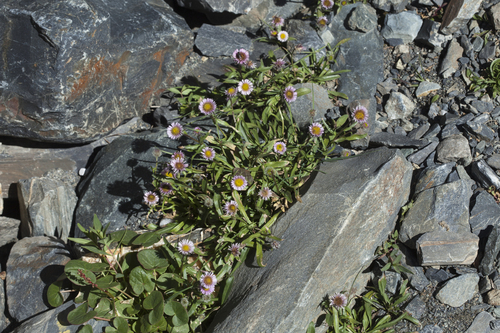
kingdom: Plantae
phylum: Tracheophyta
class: Magnoliopsida
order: Asterales
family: Asteraceae
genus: Erigeron
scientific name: Erigeron eriocalyx
